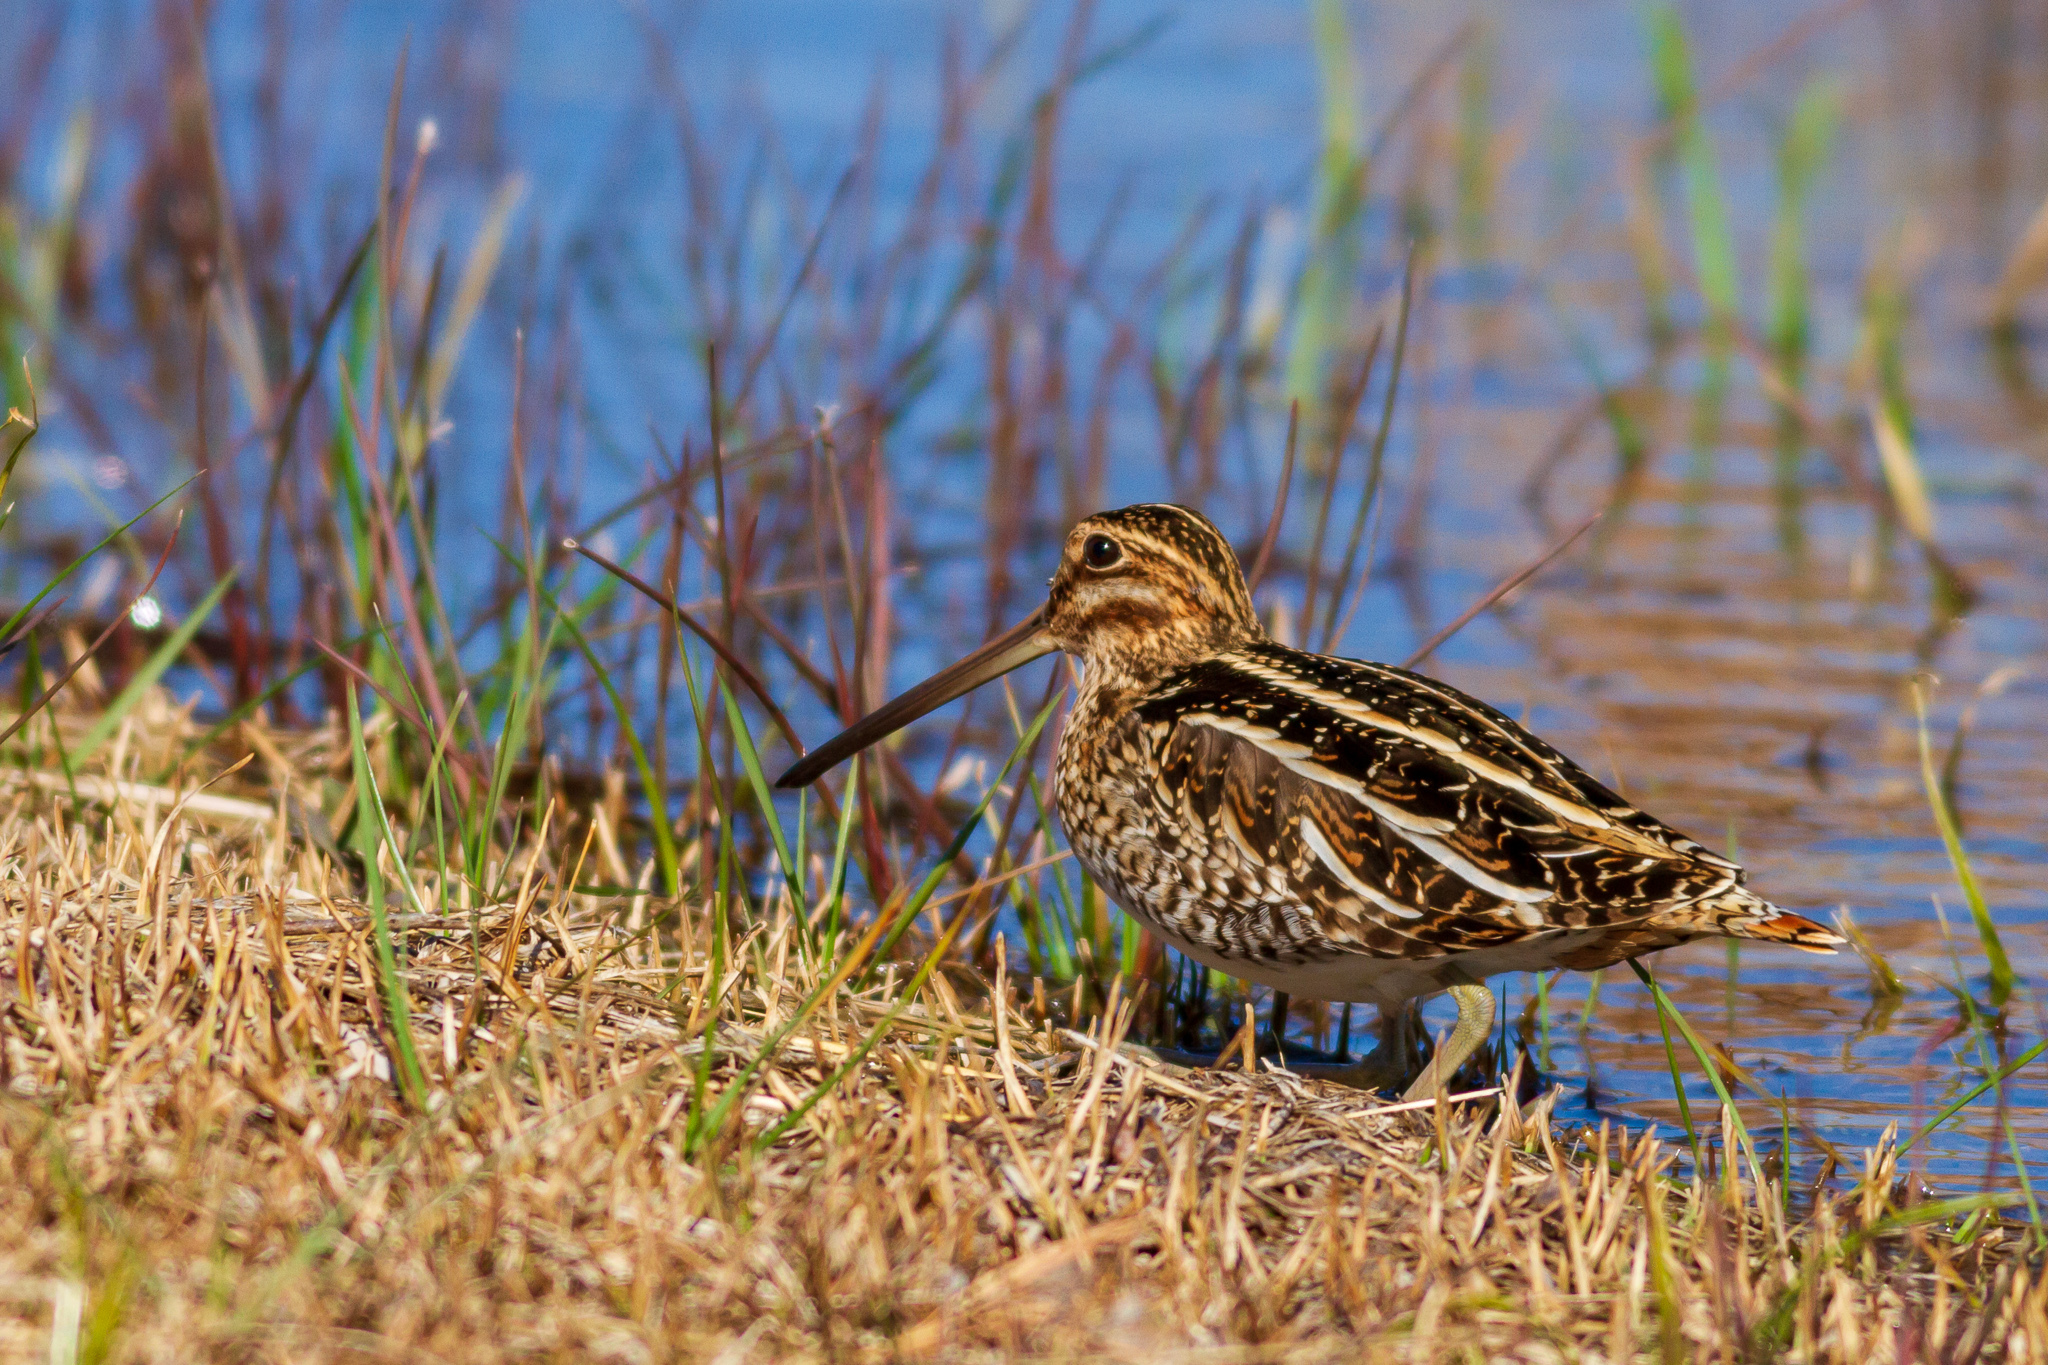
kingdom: Animalia
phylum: Chordata
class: Aves
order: Charadriiformes
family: Scolopacidae
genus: Gallinago
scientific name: Gallinago delicata
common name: Wilson's snipe
